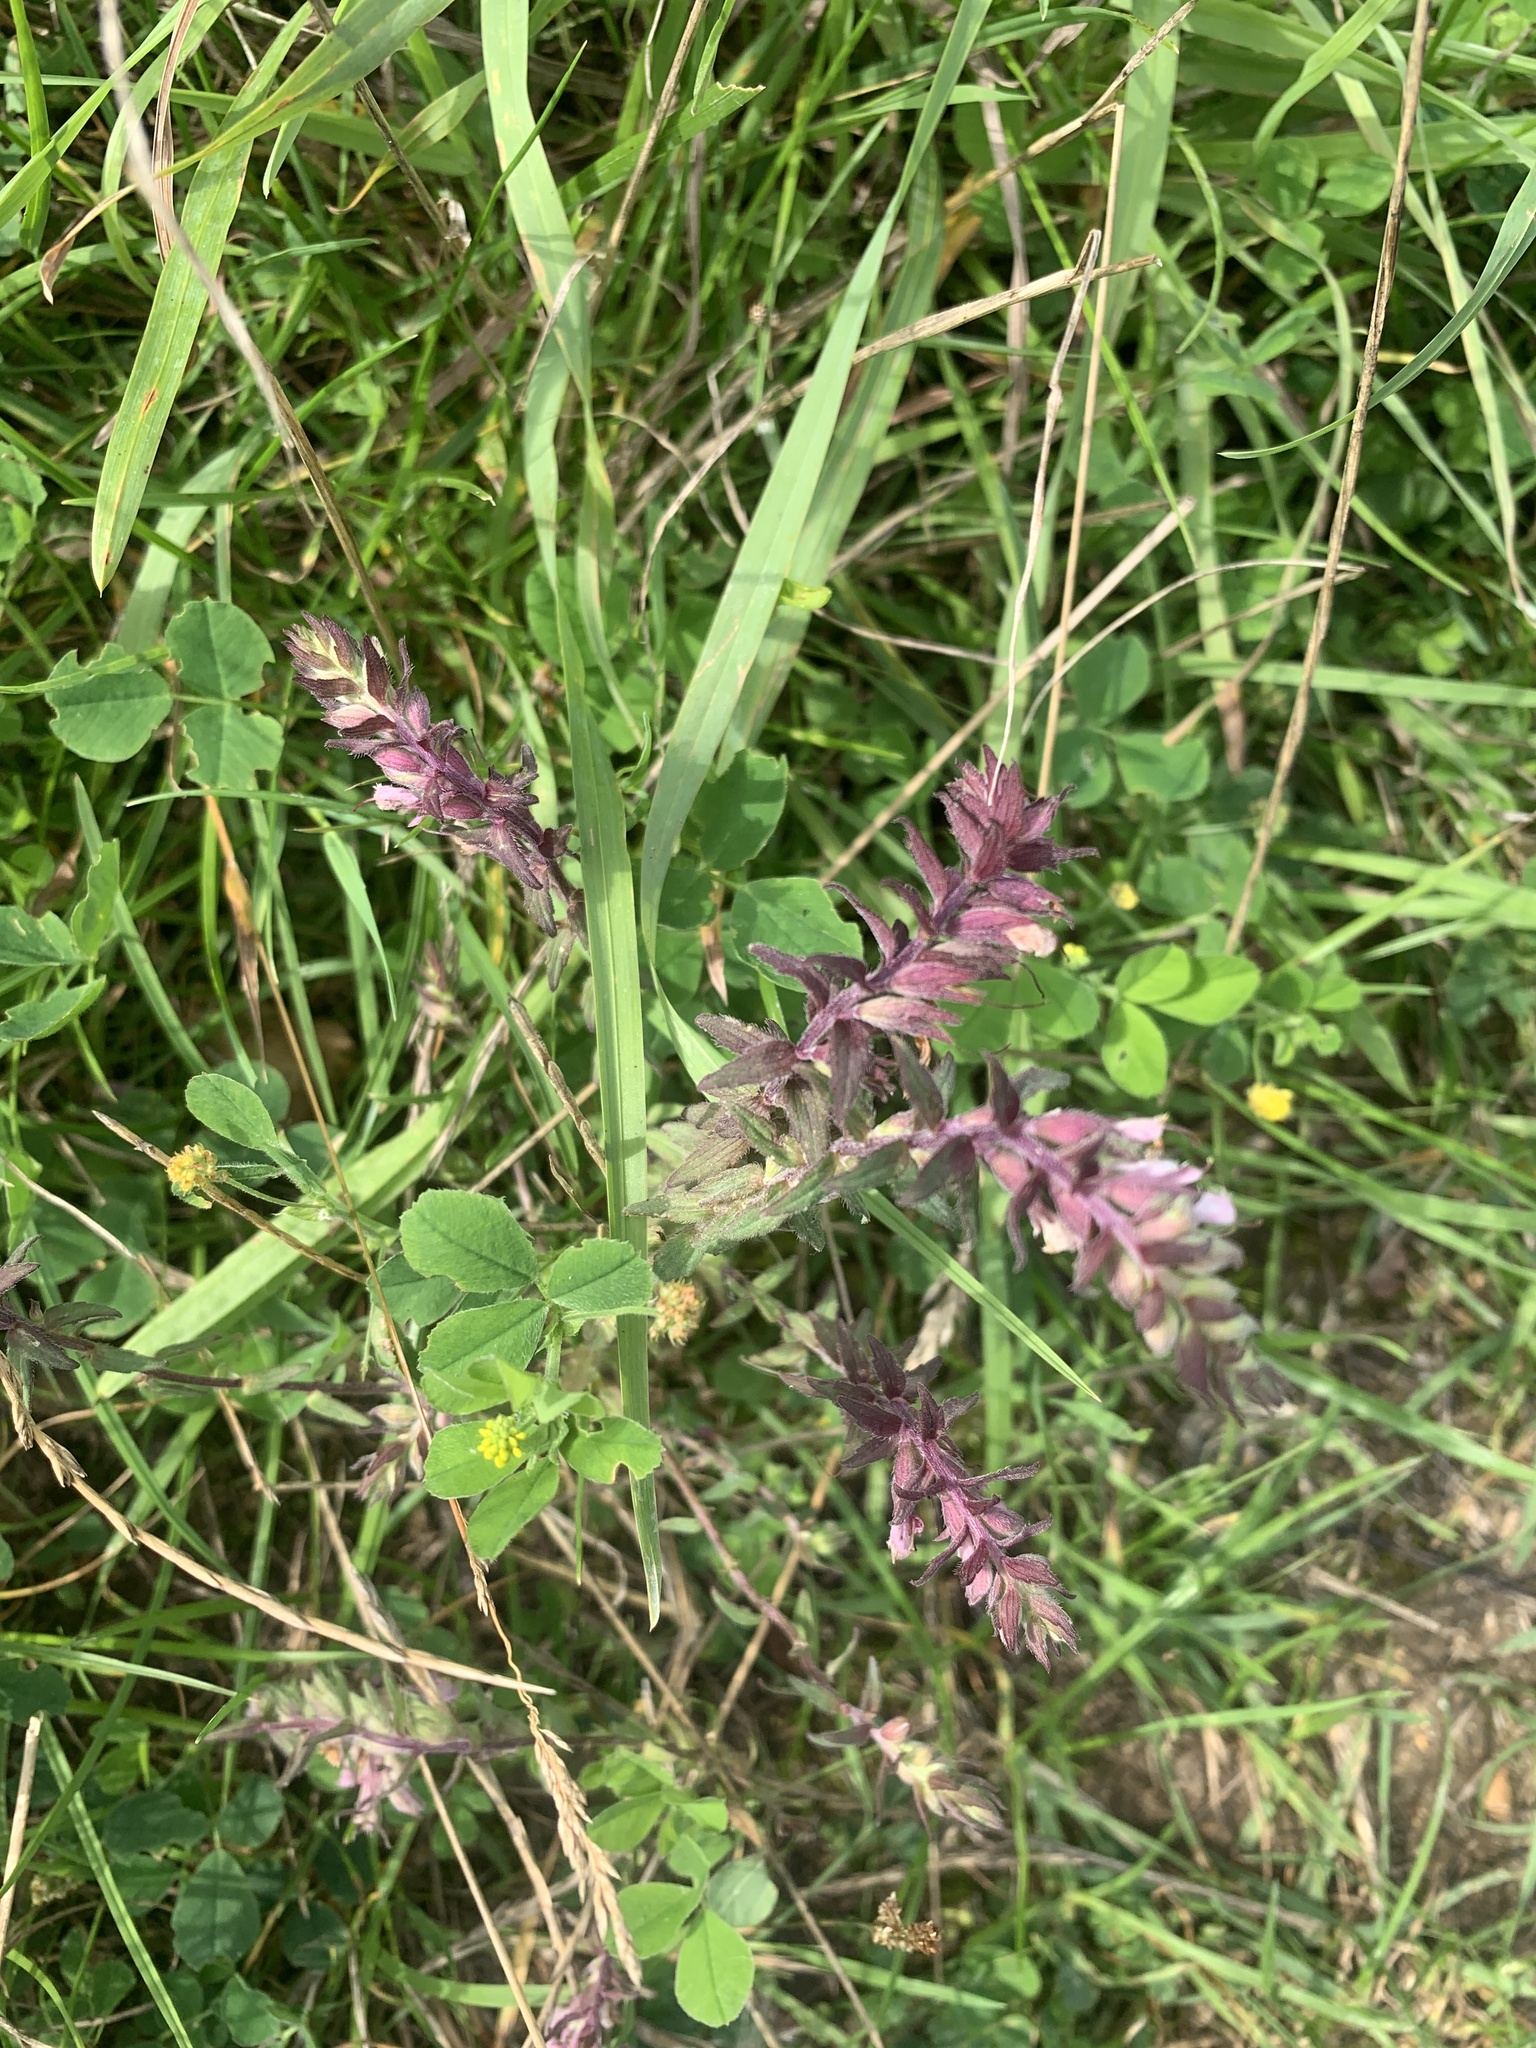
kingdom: Plantae
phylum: Tracheophyta
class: Magnoliopsida
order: Lamiales
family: Orobanchaceae
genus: Odontites
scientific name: Odontites vulgaris
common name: Broomrape
